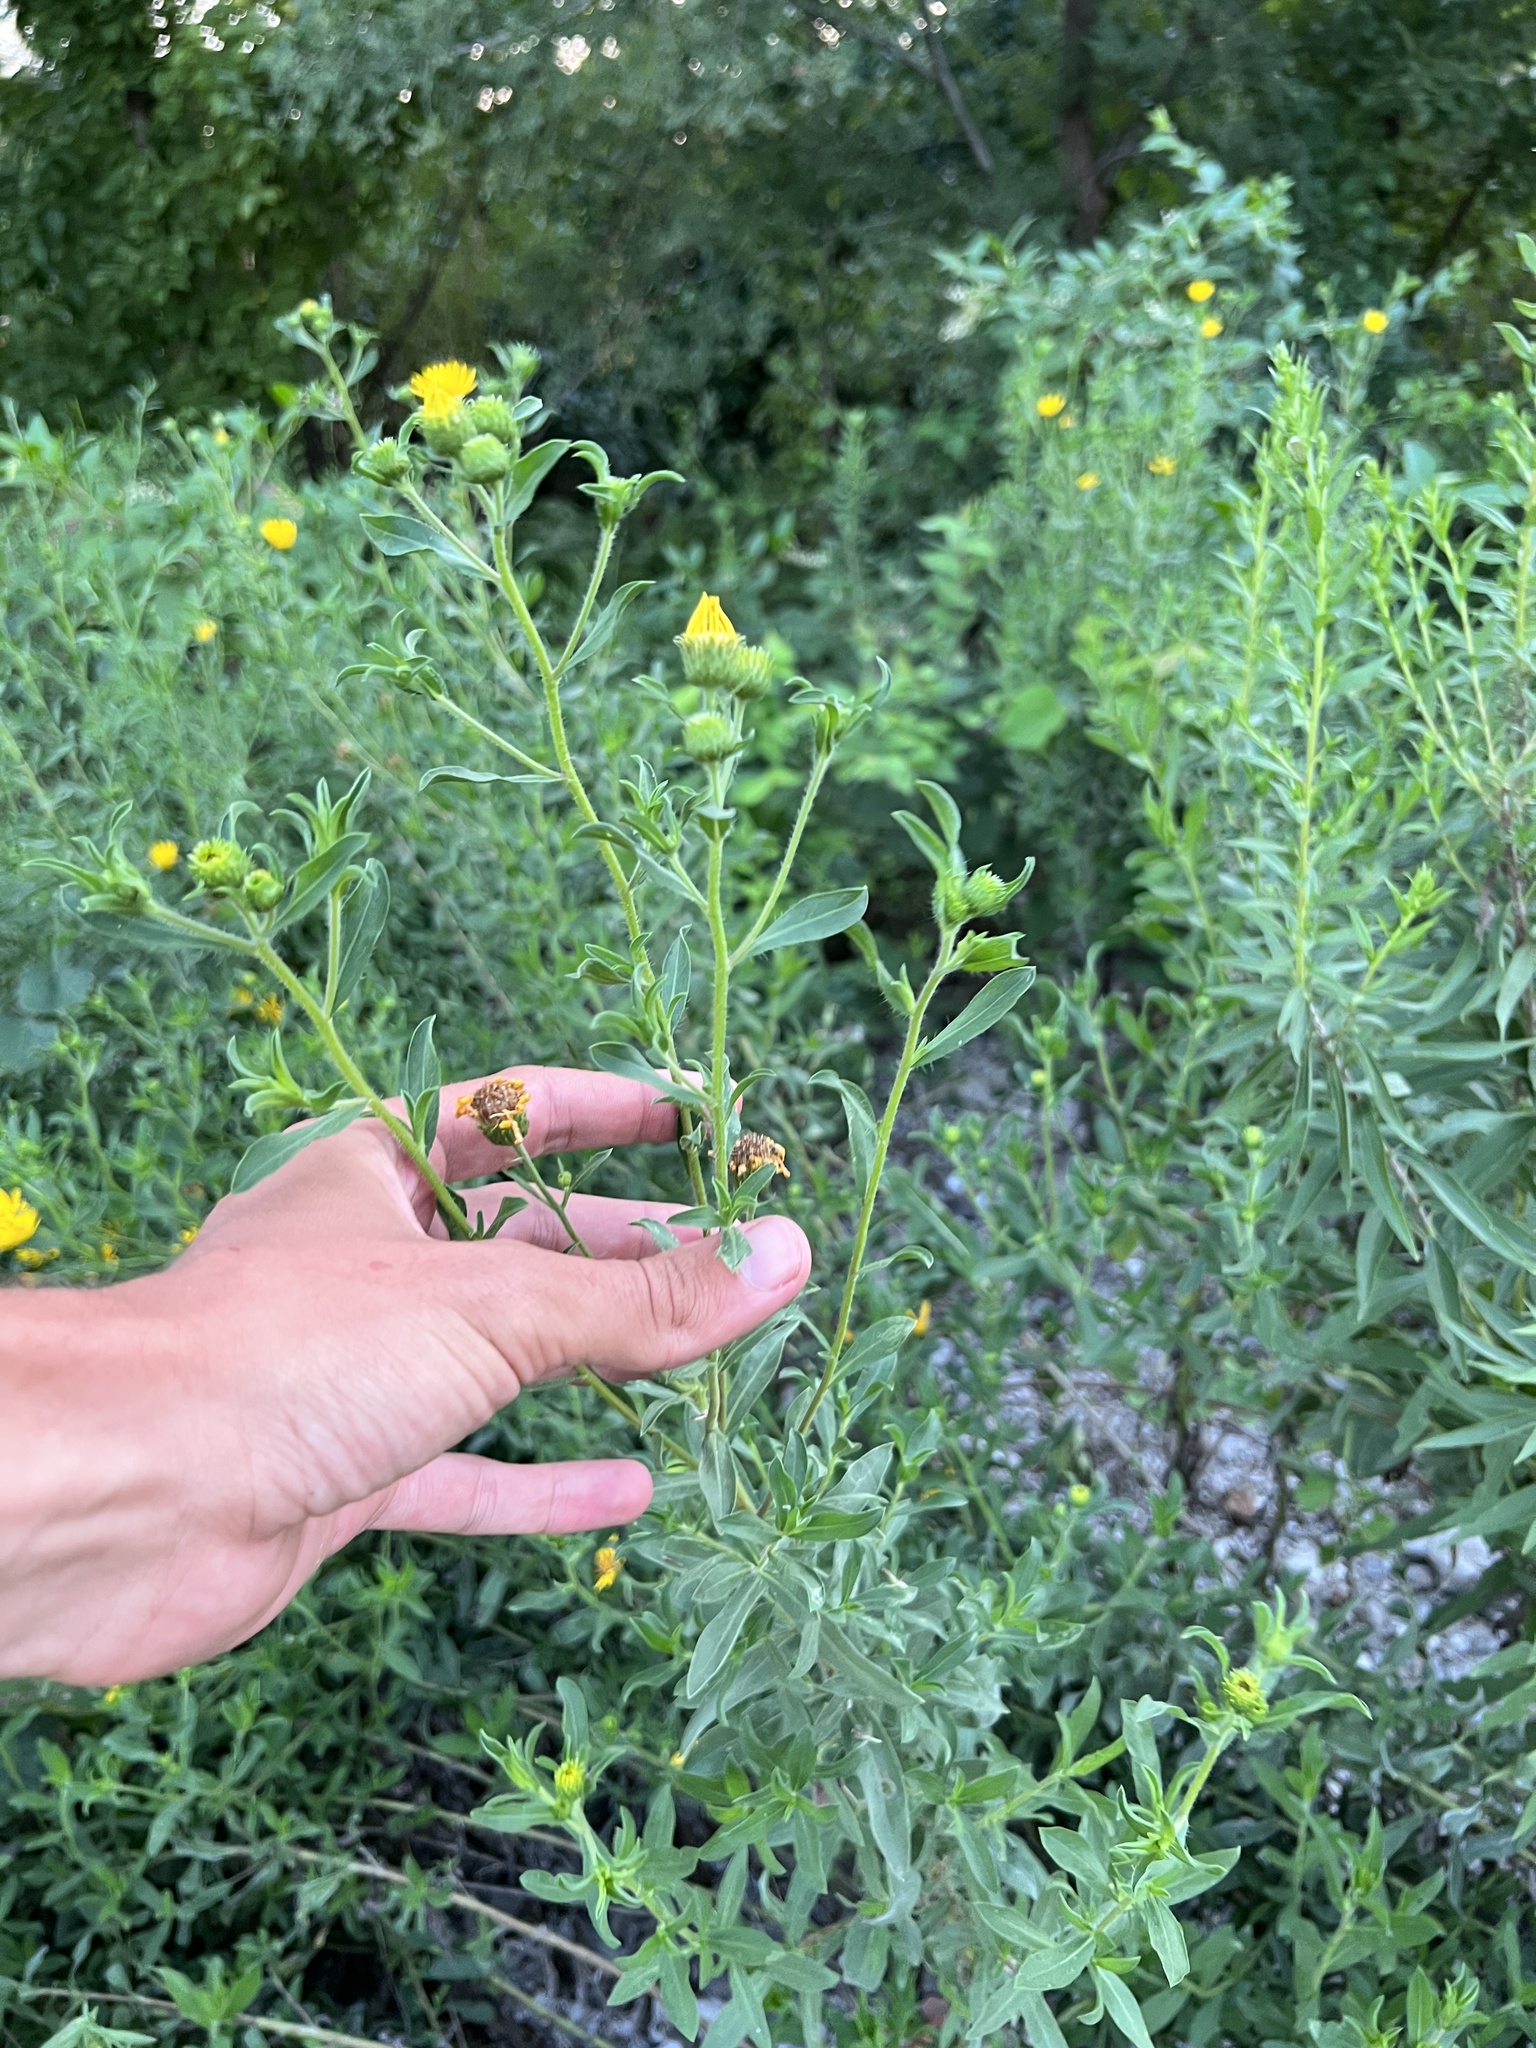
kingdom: Plantae
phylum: Tracheophyta
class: Magnoliopsida
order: Asterales
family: Asteraceae
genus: Heterotheca
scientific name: Heterotheca camporum
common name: Prairie golden-aster
